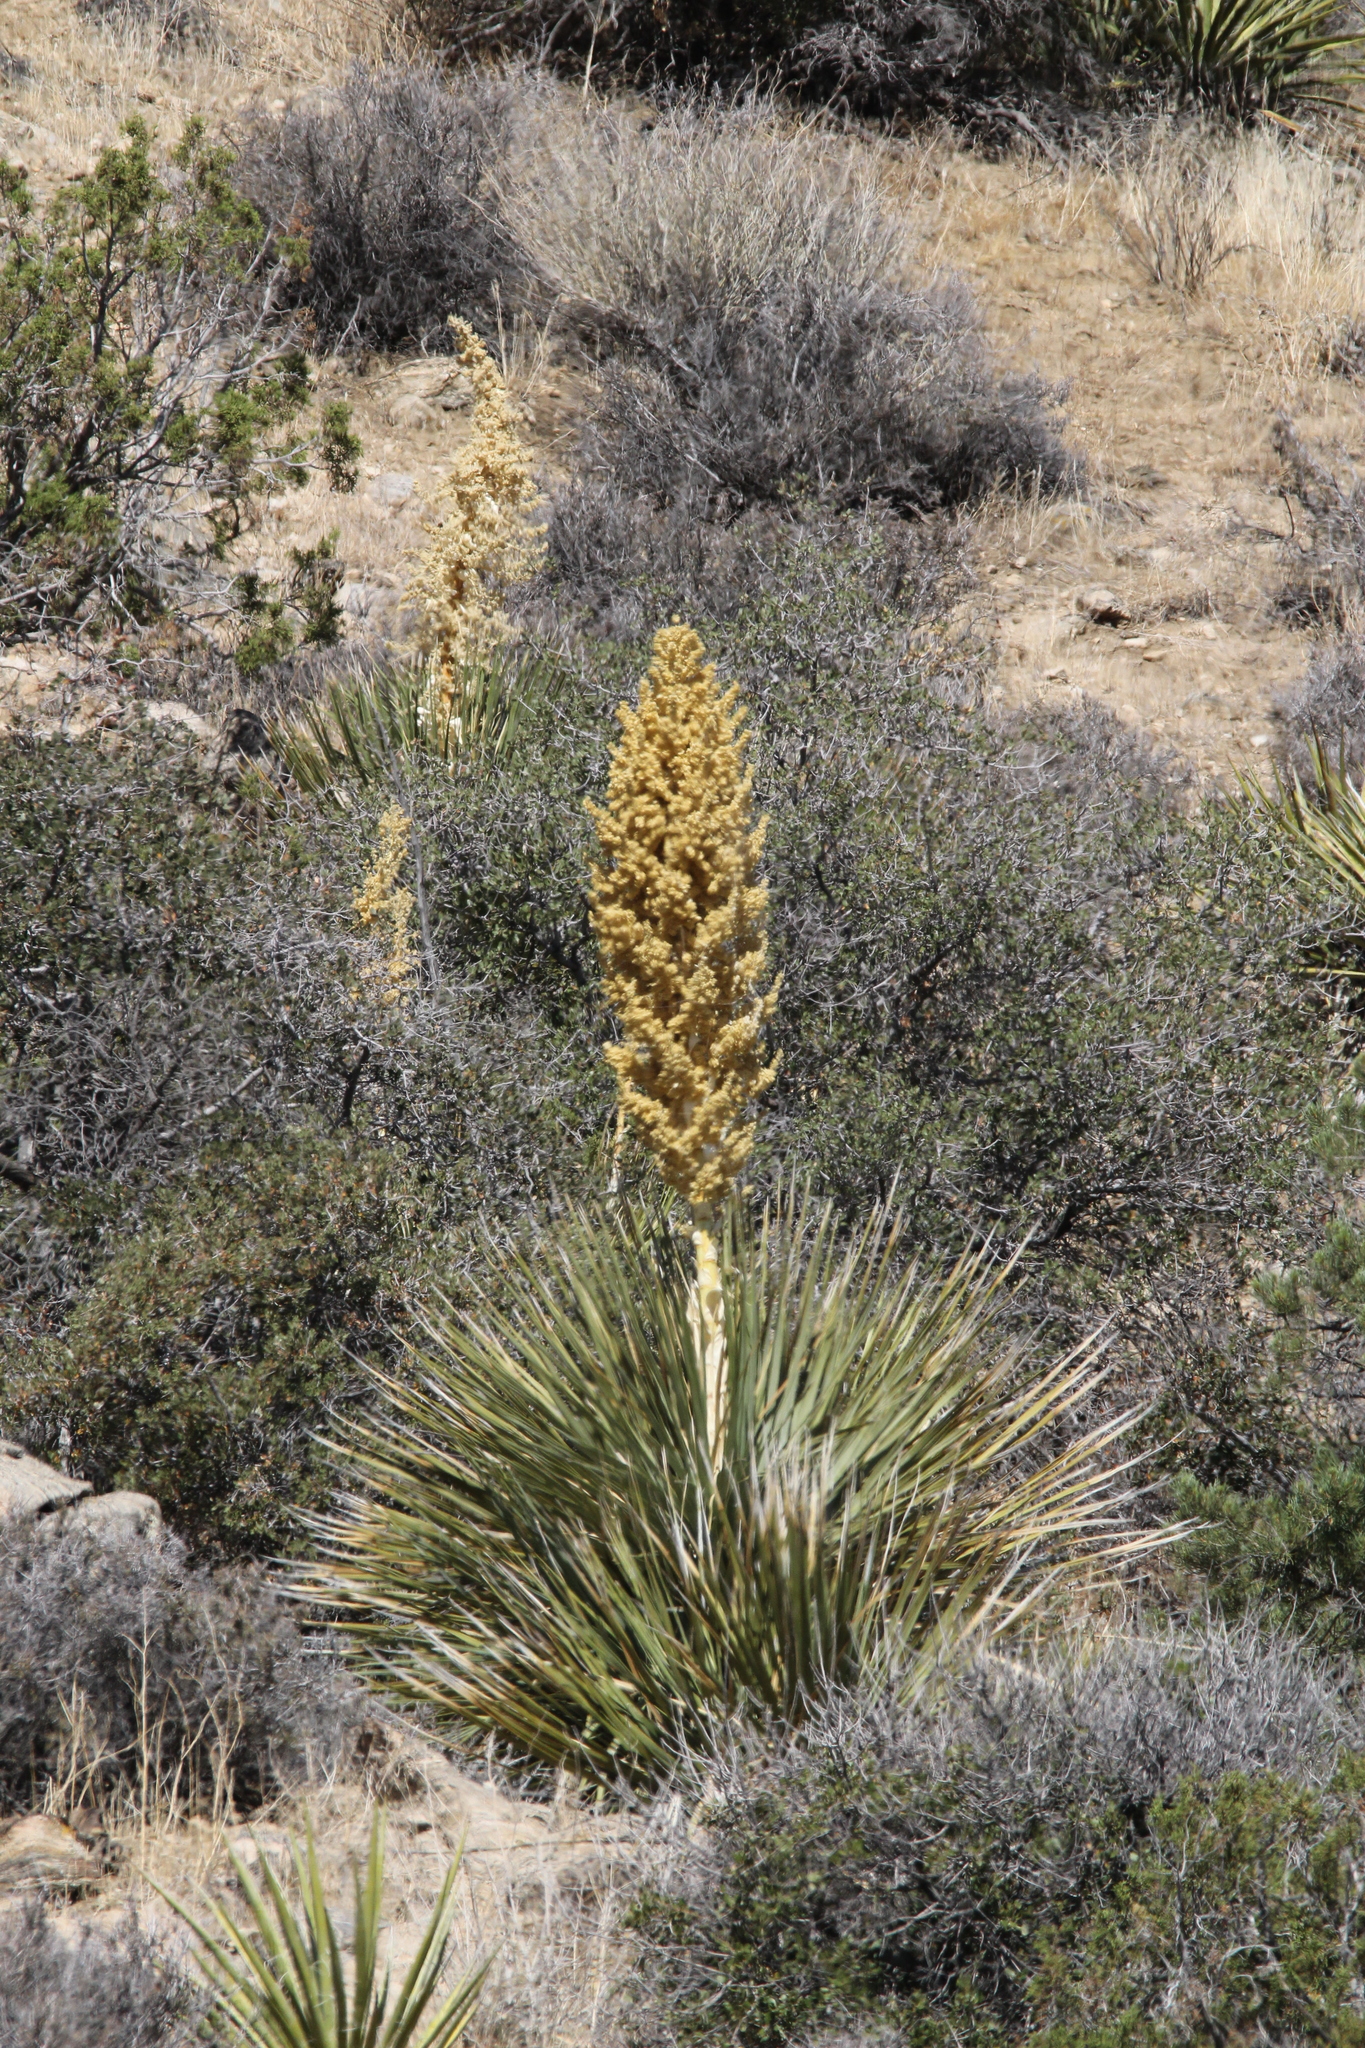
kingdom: Plantae
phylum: Tracheophyta
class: Liliopsida
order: Asparagales
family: Asparagaceae
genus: Nolina
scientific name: Nolina parryi
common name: Parry nolina
